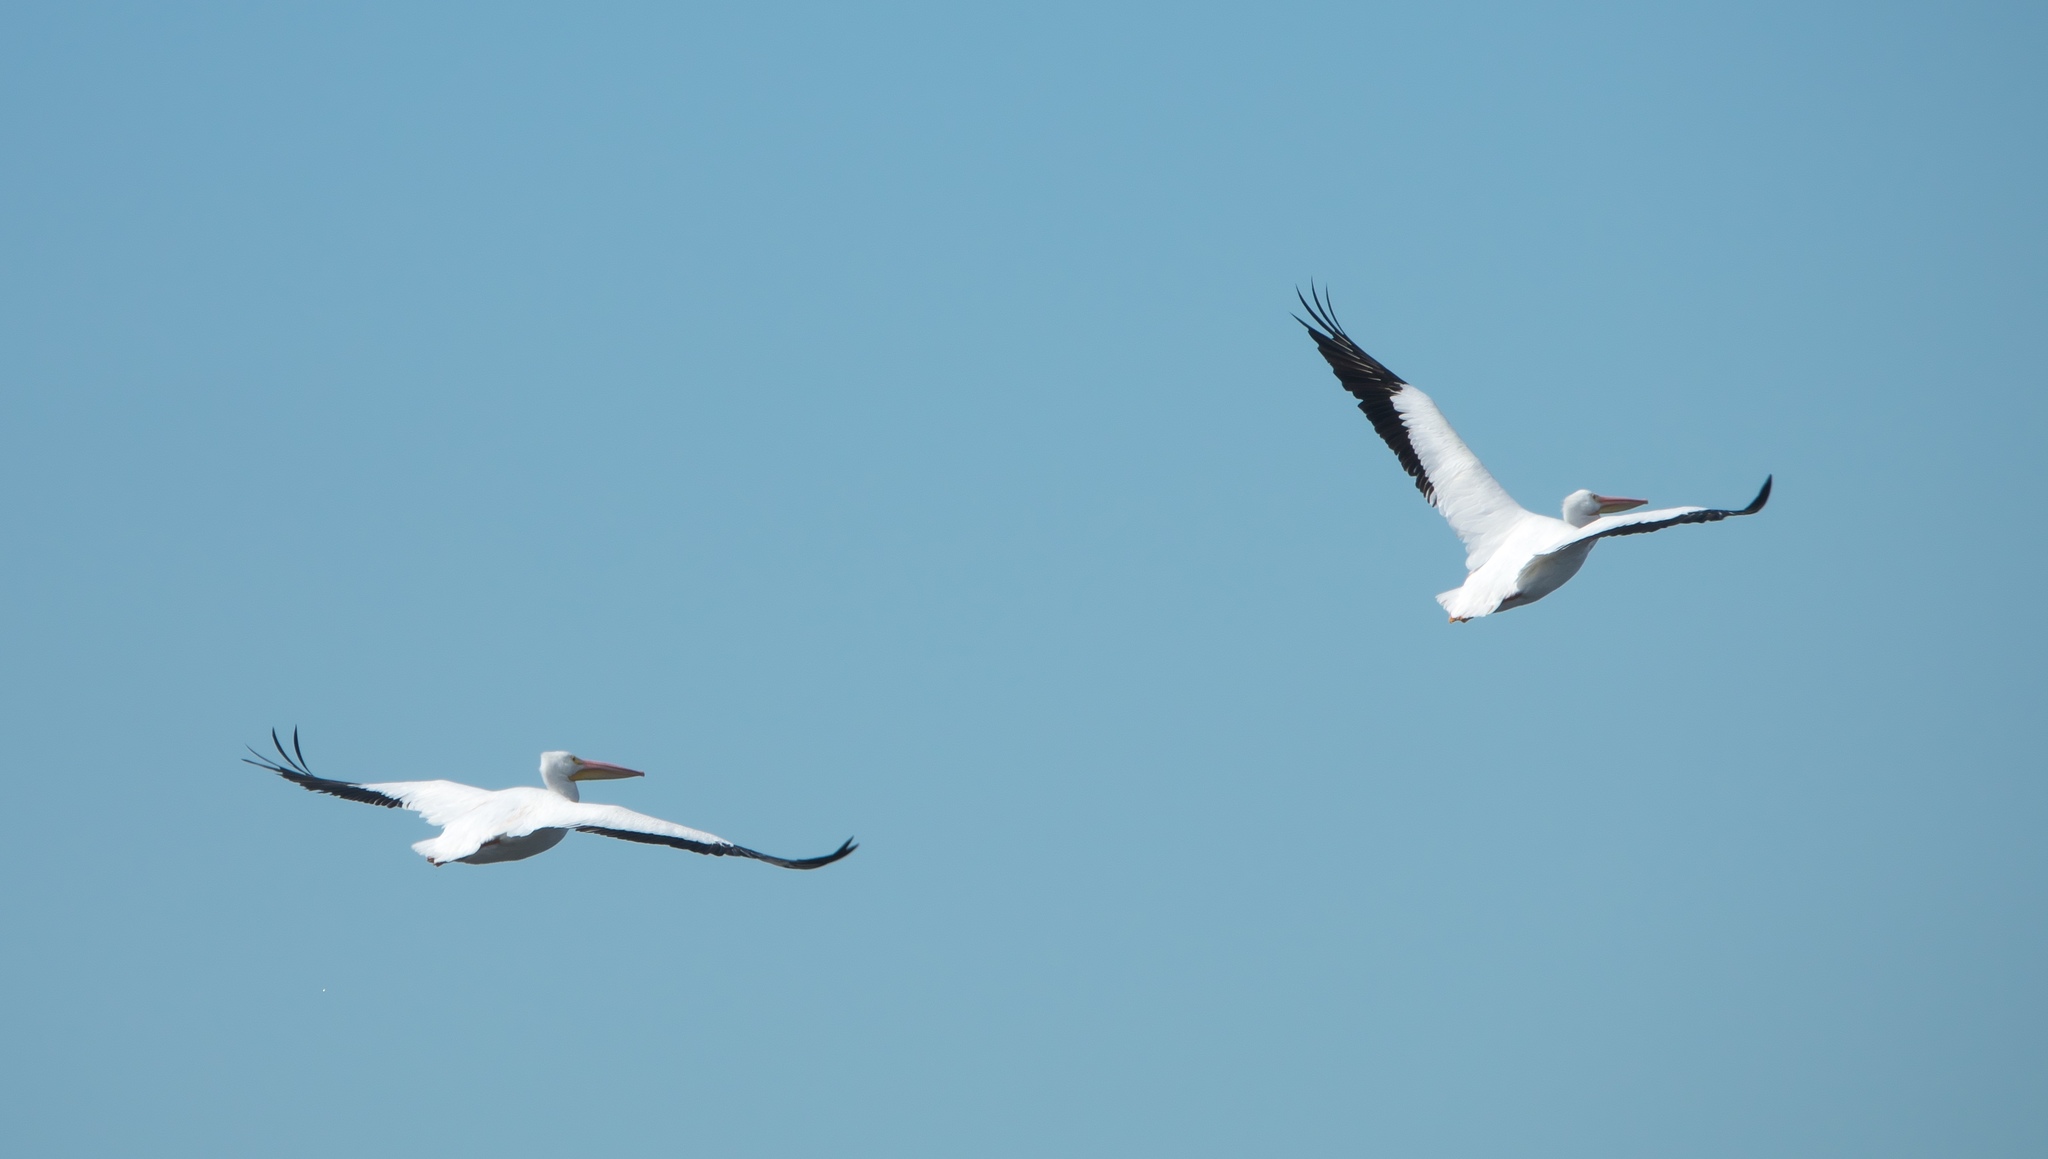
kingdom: Animalia
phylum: Chordata
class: Aves
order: Pelecaniformes
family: Pelecanidae
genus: Pelecanus
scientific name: Pelecanus erythrorhynchos
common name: American white pelican
